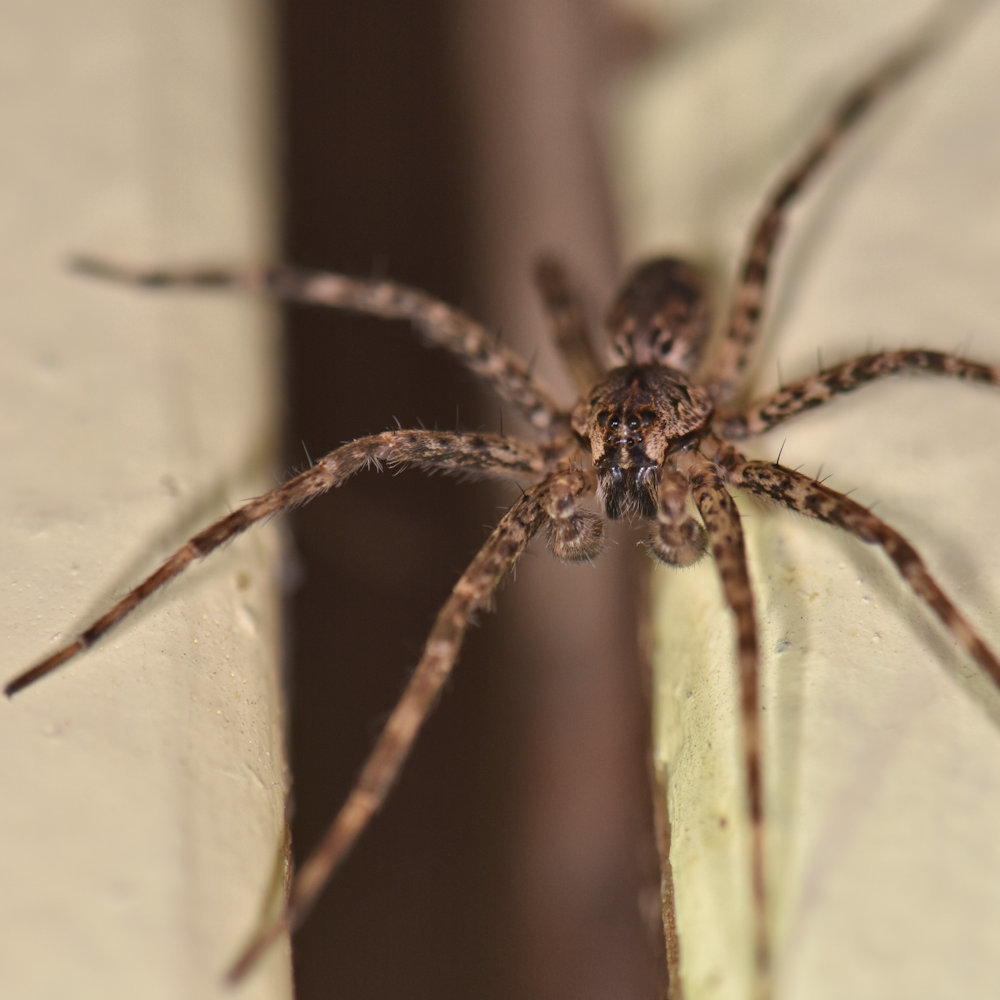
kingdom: Animalia
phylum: Arthropoda
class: Arachnida
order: Araneae
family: Pisauridae
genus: Dolomedes
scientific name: Dolomedes tenebrosus
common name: Dark fishing spider
